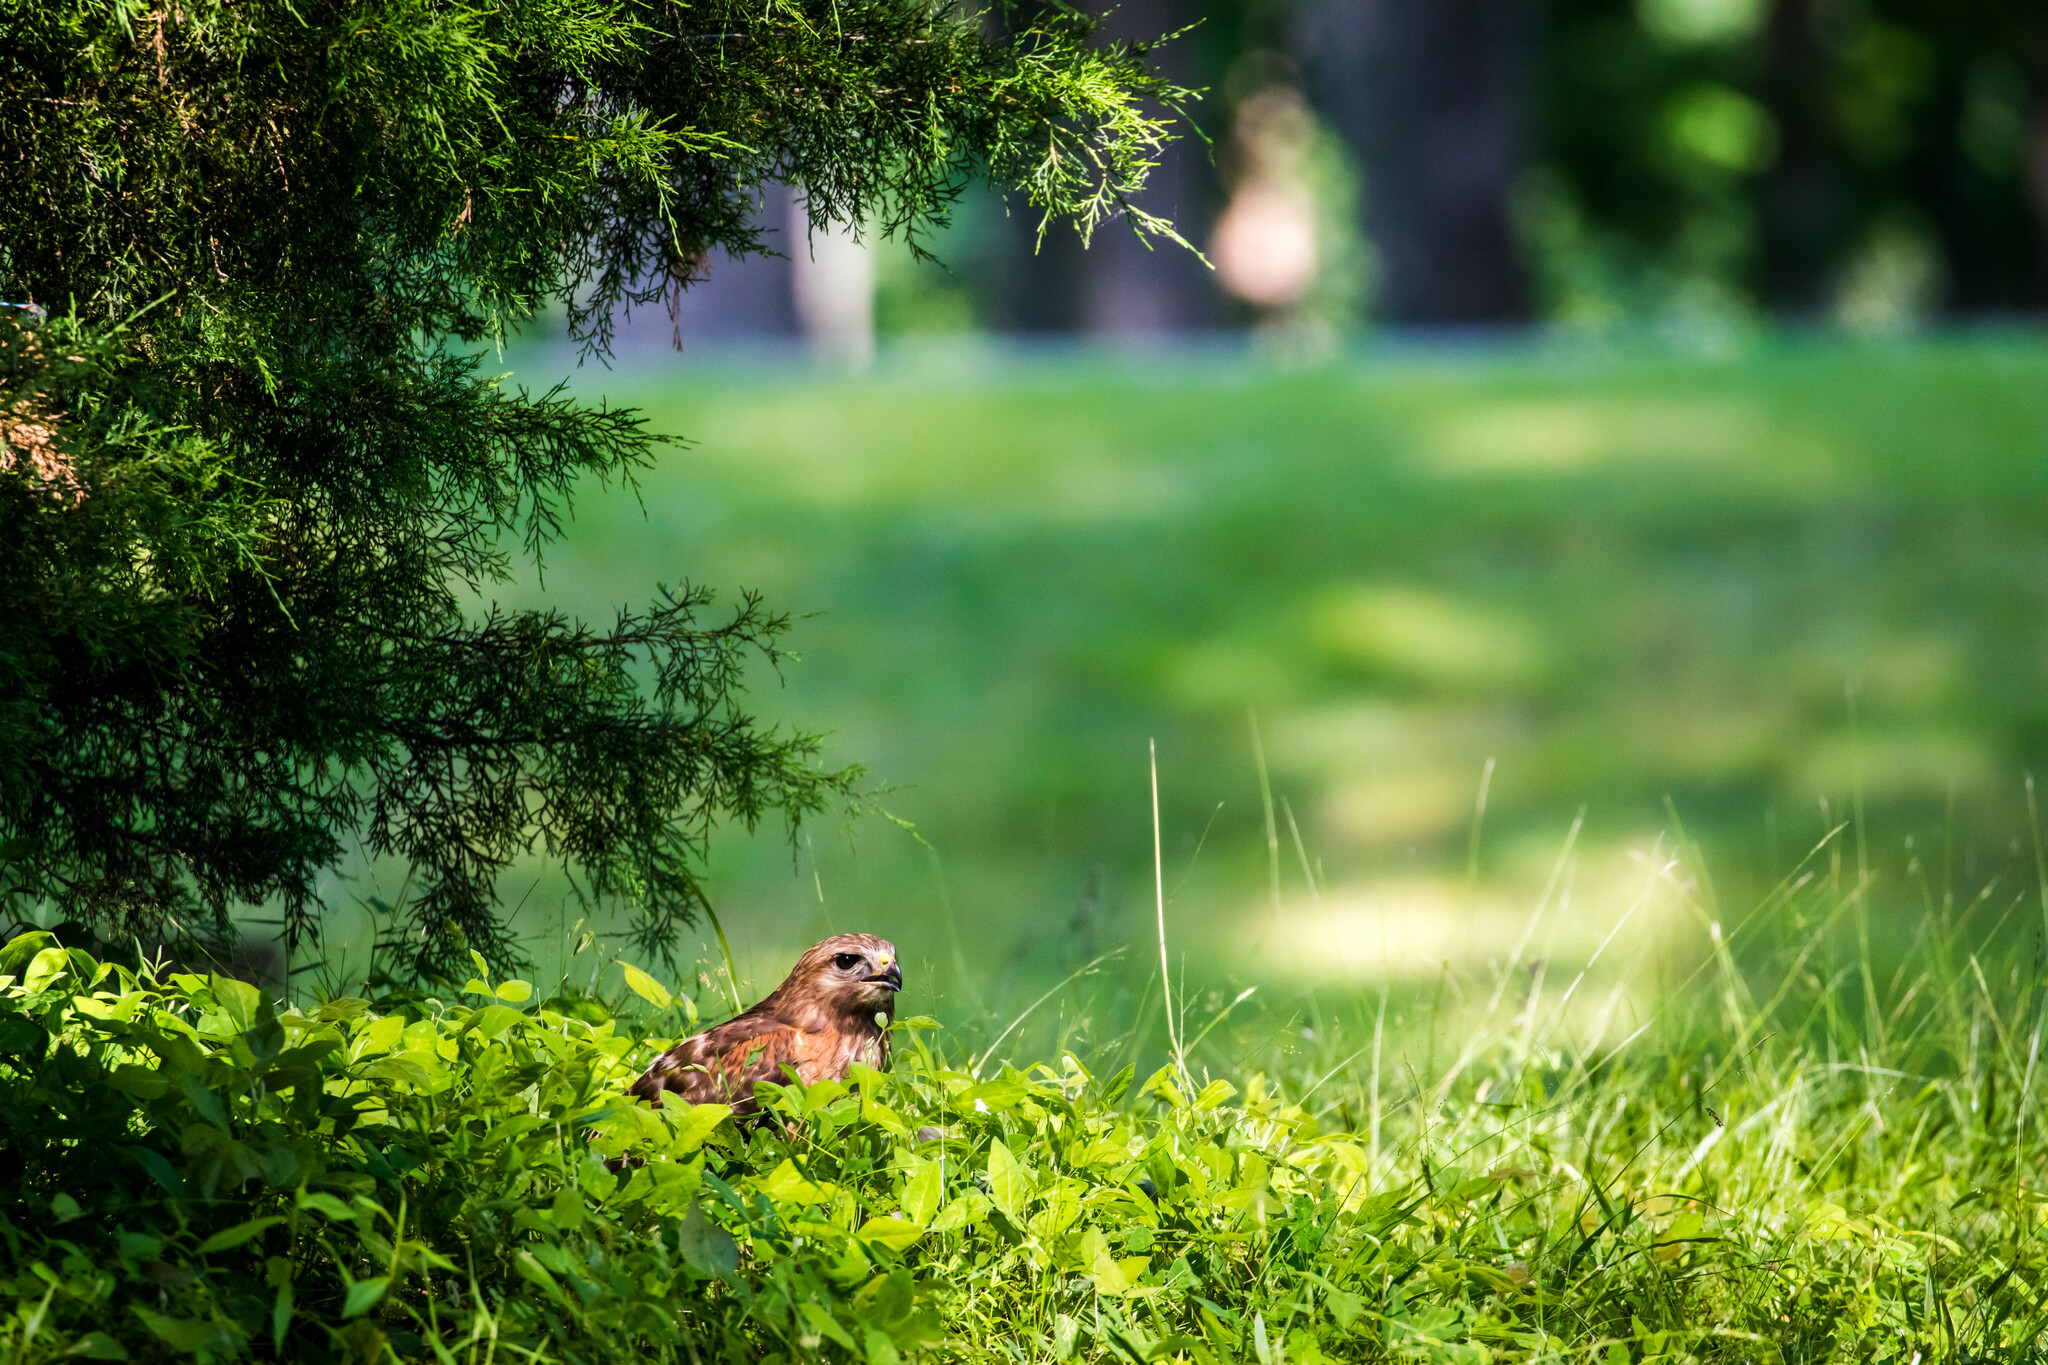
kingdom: Animalia
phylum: Chordata
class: Aves
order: Accipitriformes
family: Accipitridae
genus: Buteo
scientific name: Buteo lineatus
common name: Red-shouldered hawk
